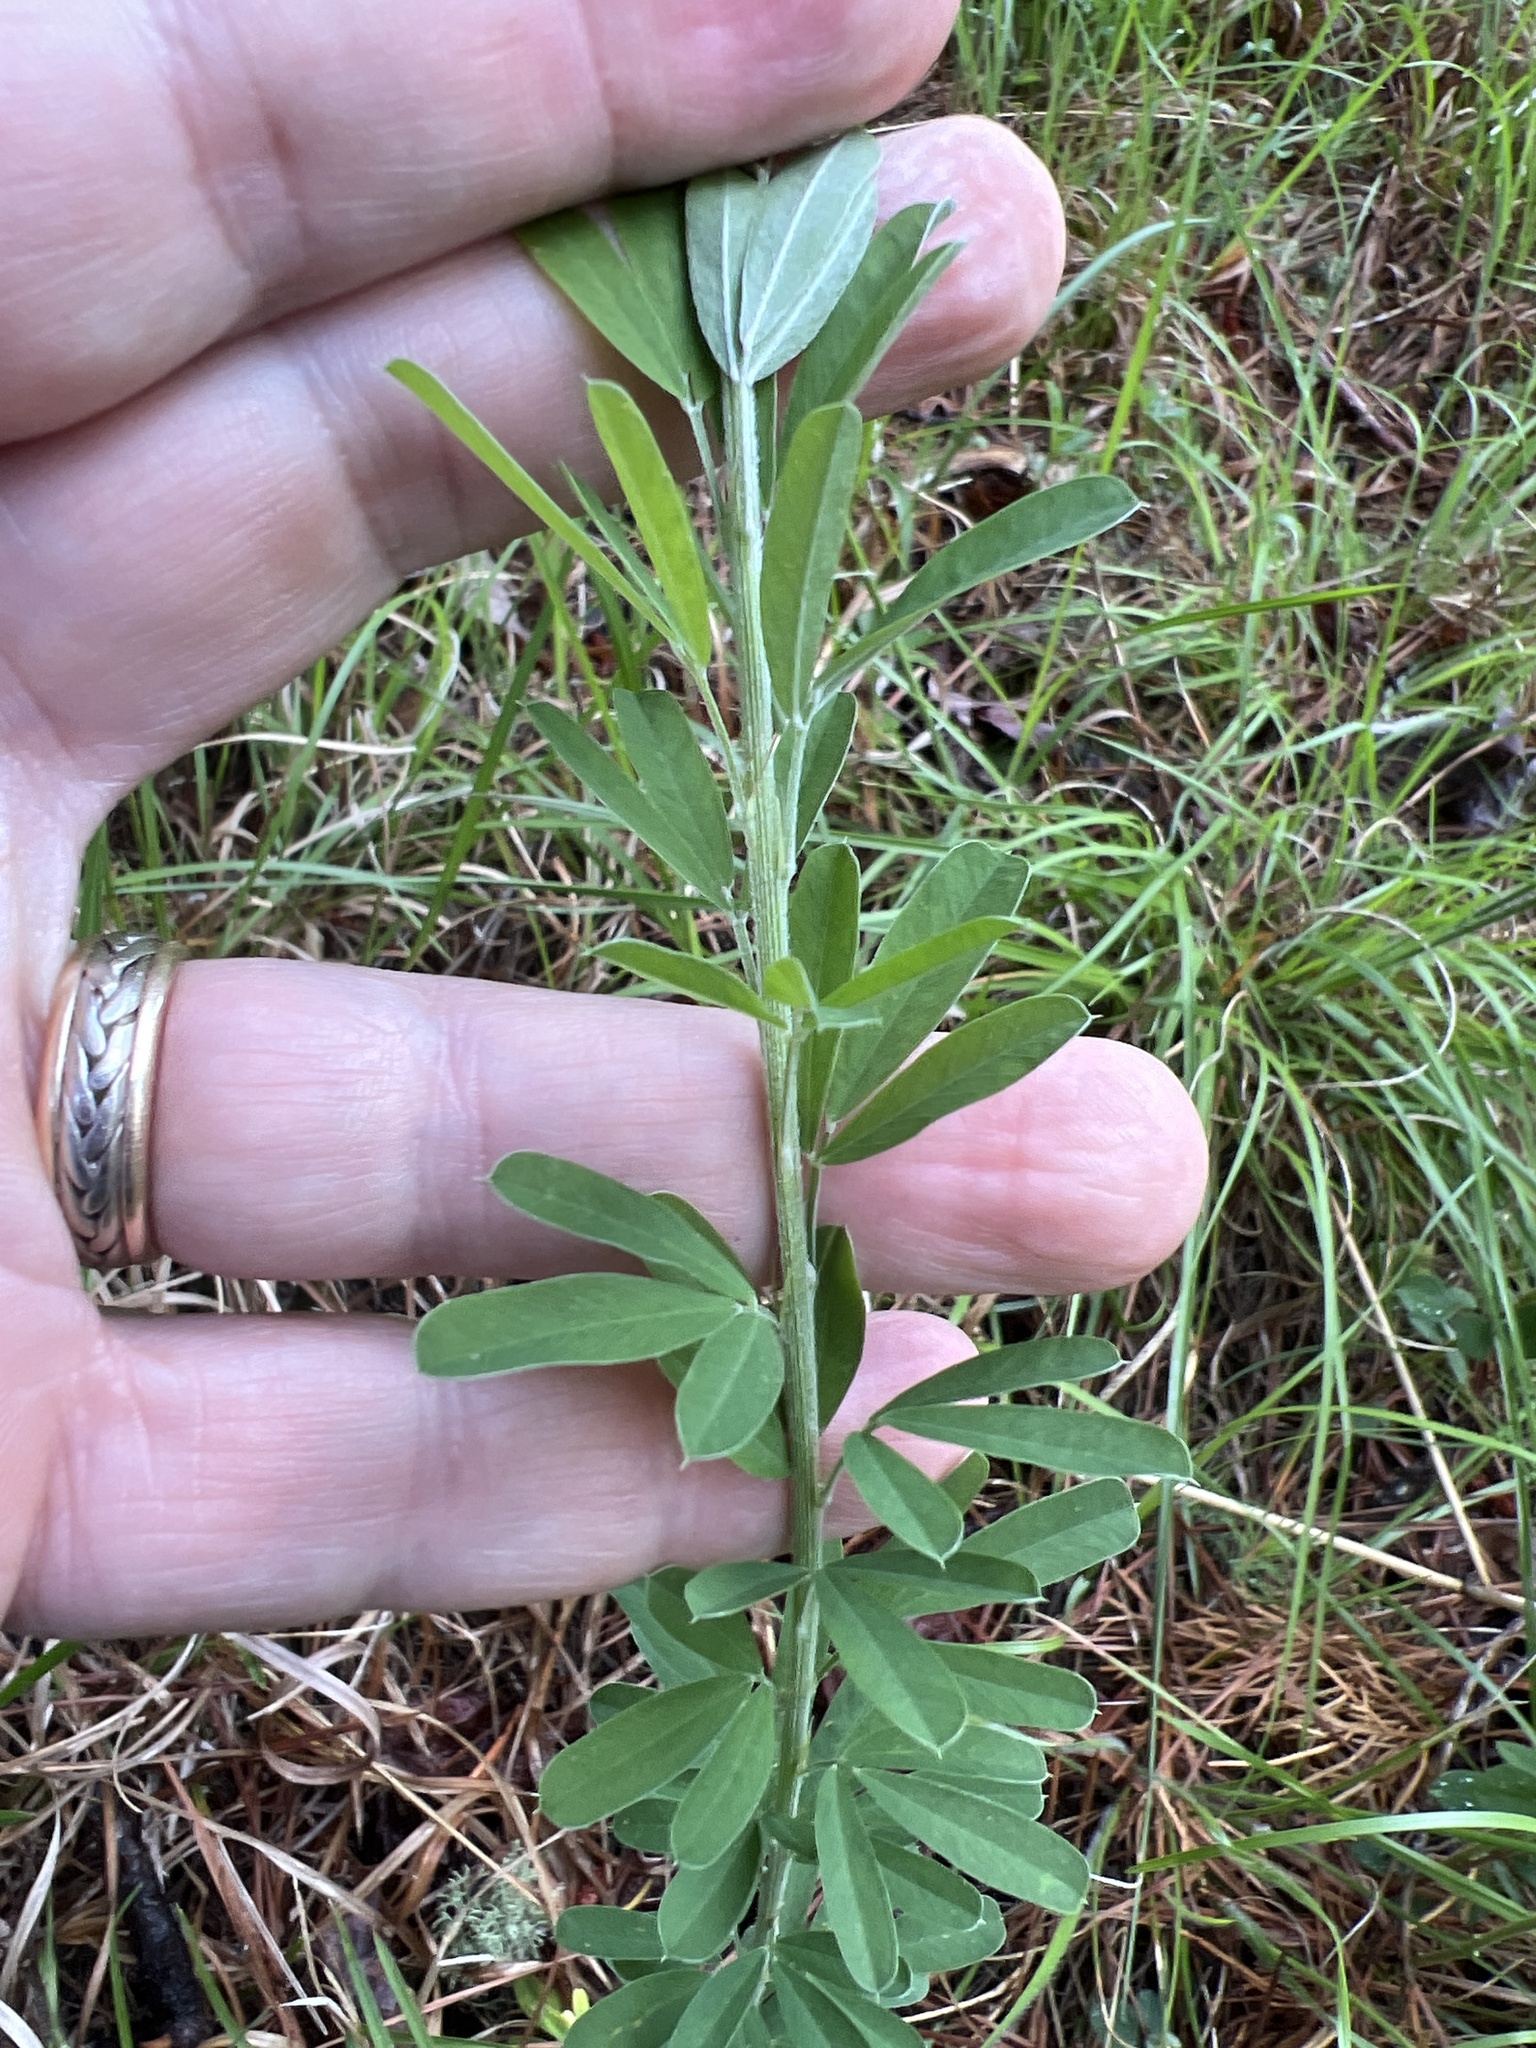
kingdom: Plantae
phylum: Tracheophyta
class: Magnoliopsida
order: Fabales
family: Fabaceae
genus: Lespedeza
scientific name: Lespedeza cuneata
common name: Chinese bush-clover
